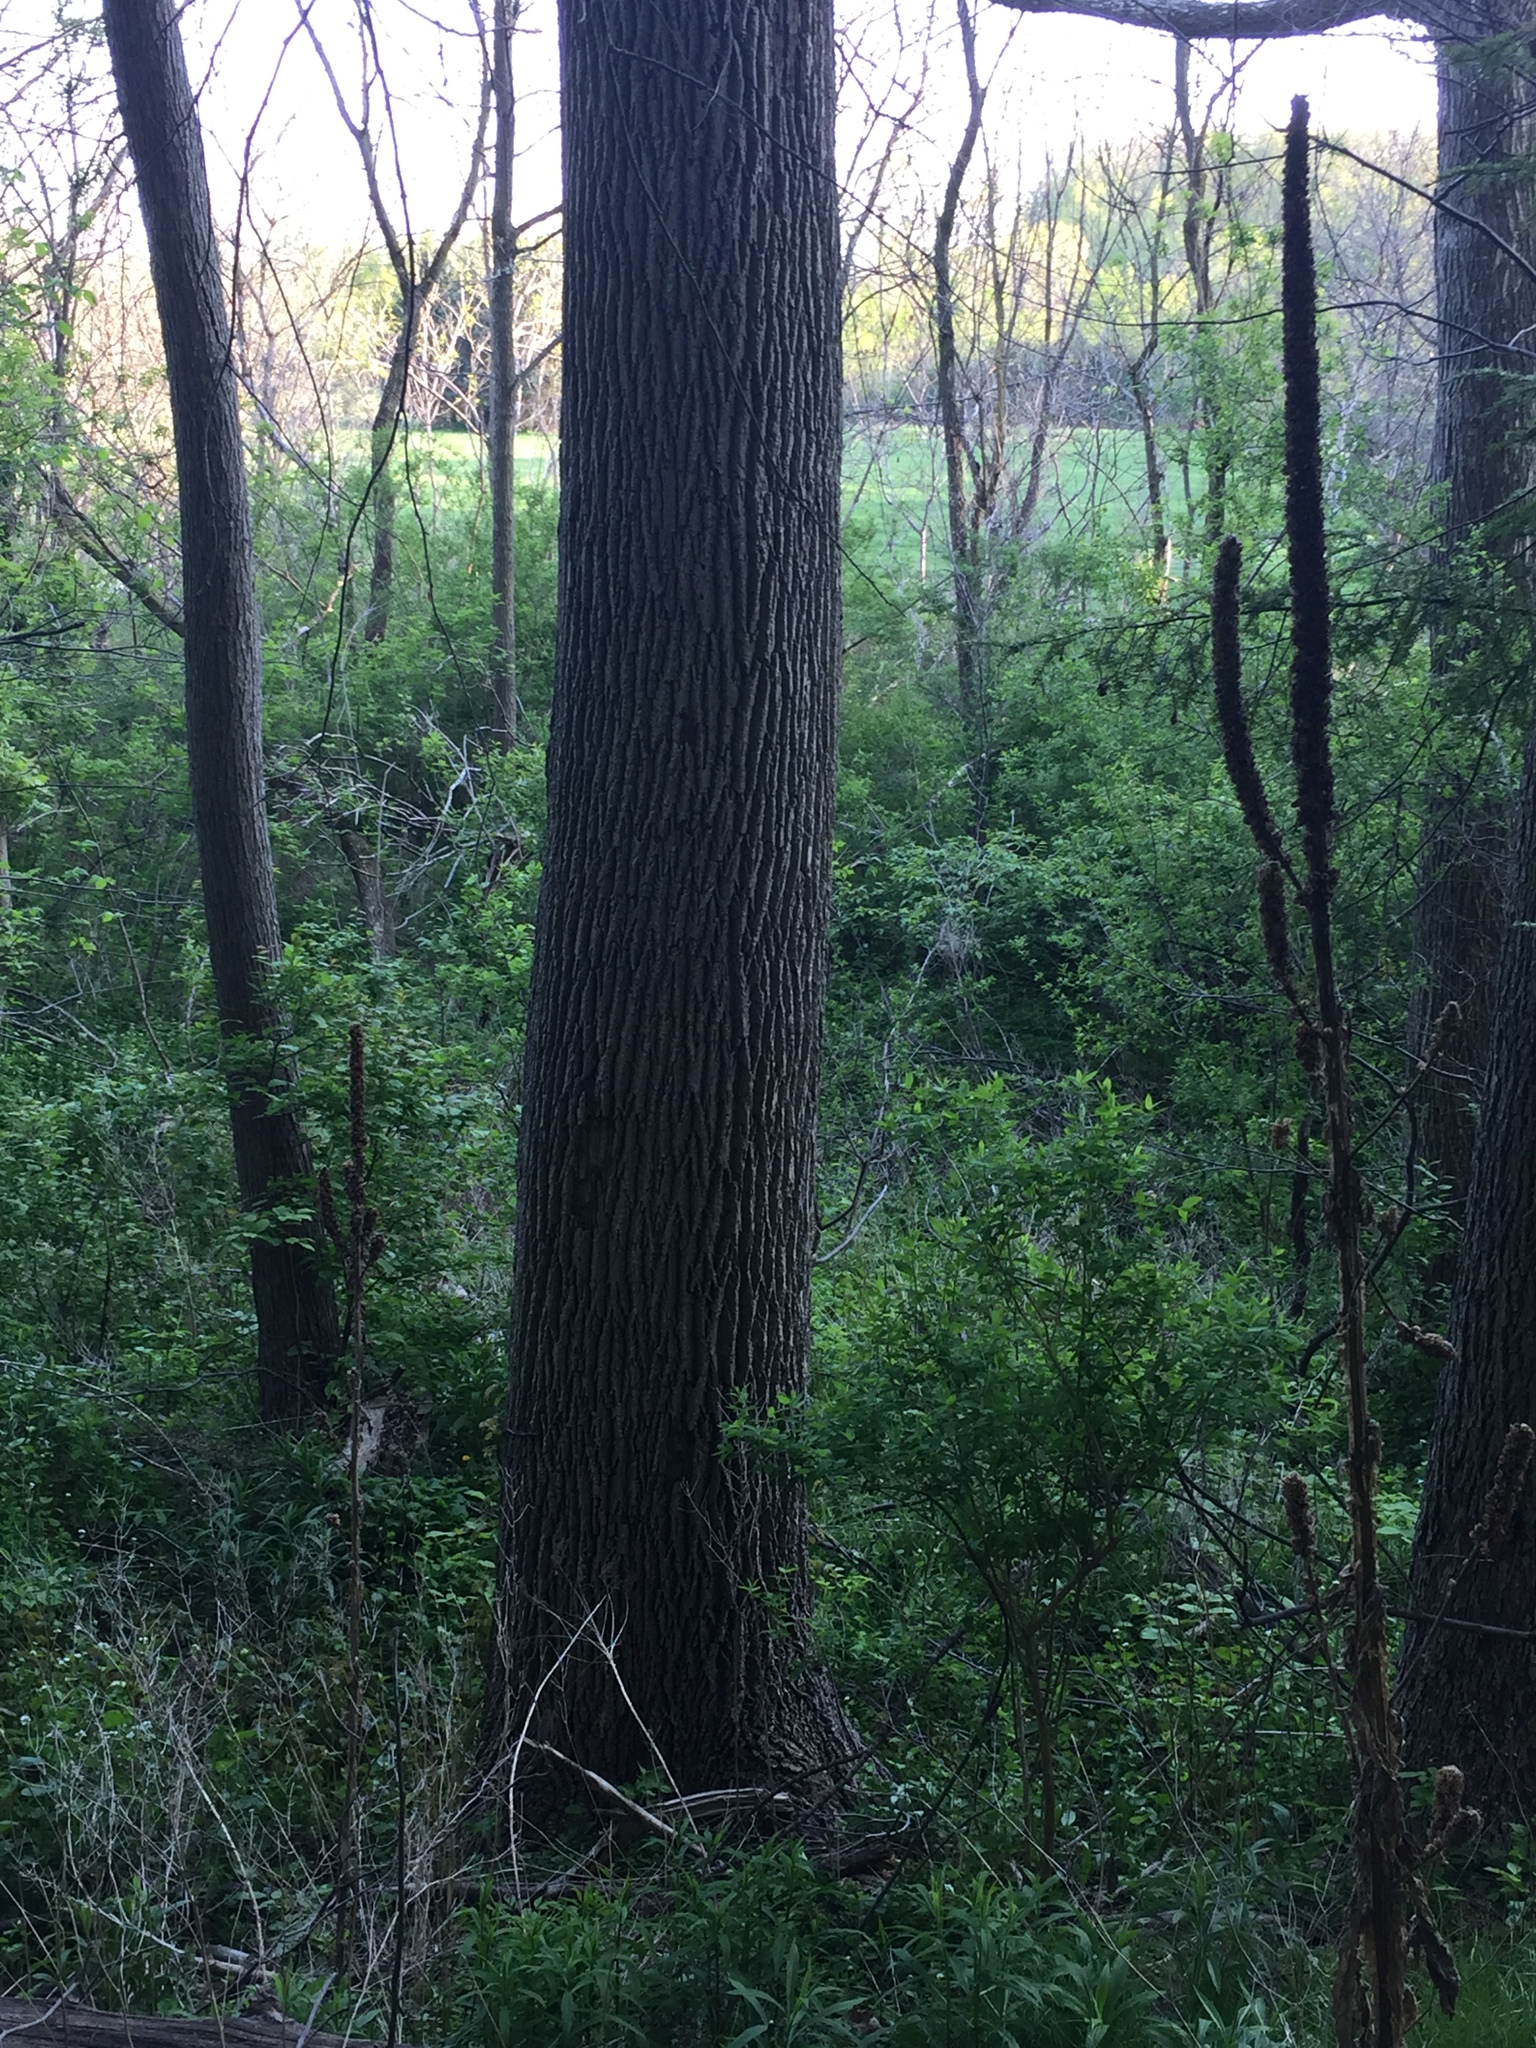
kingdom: Plantae
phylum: Tracheophyta
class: Magnoliopsida
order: Lamiales
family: Oleaceae
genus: Fraxinus
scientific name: Fraxinus americana
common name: White ash
